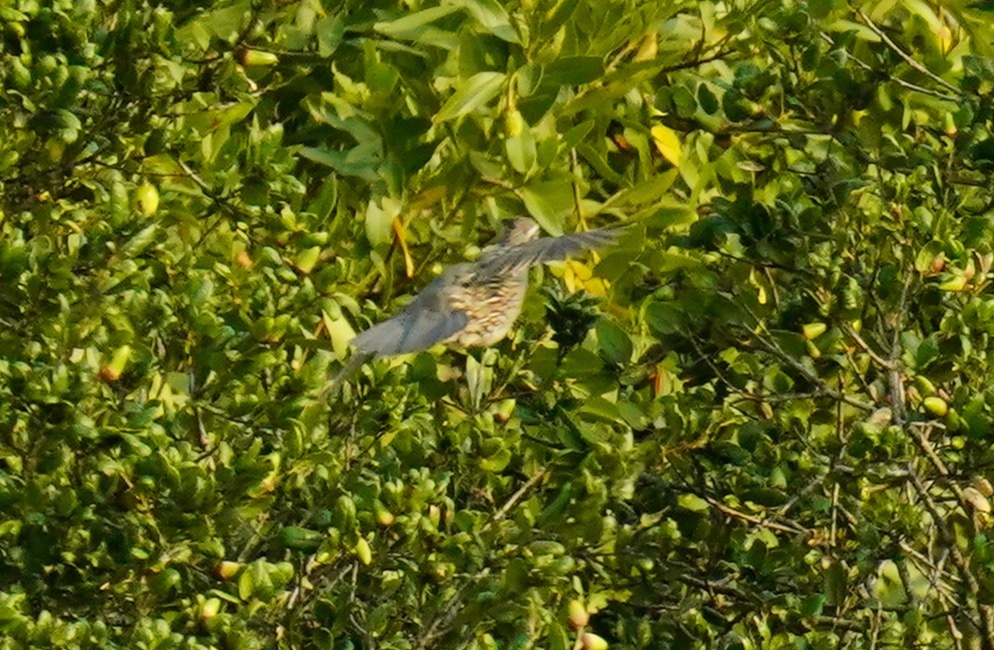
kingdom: Animalia
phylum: Chordata
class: Aves
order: Galliformes
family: Odontophoridae
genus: Callipepla
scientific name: Callipepla californica
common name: California quail
